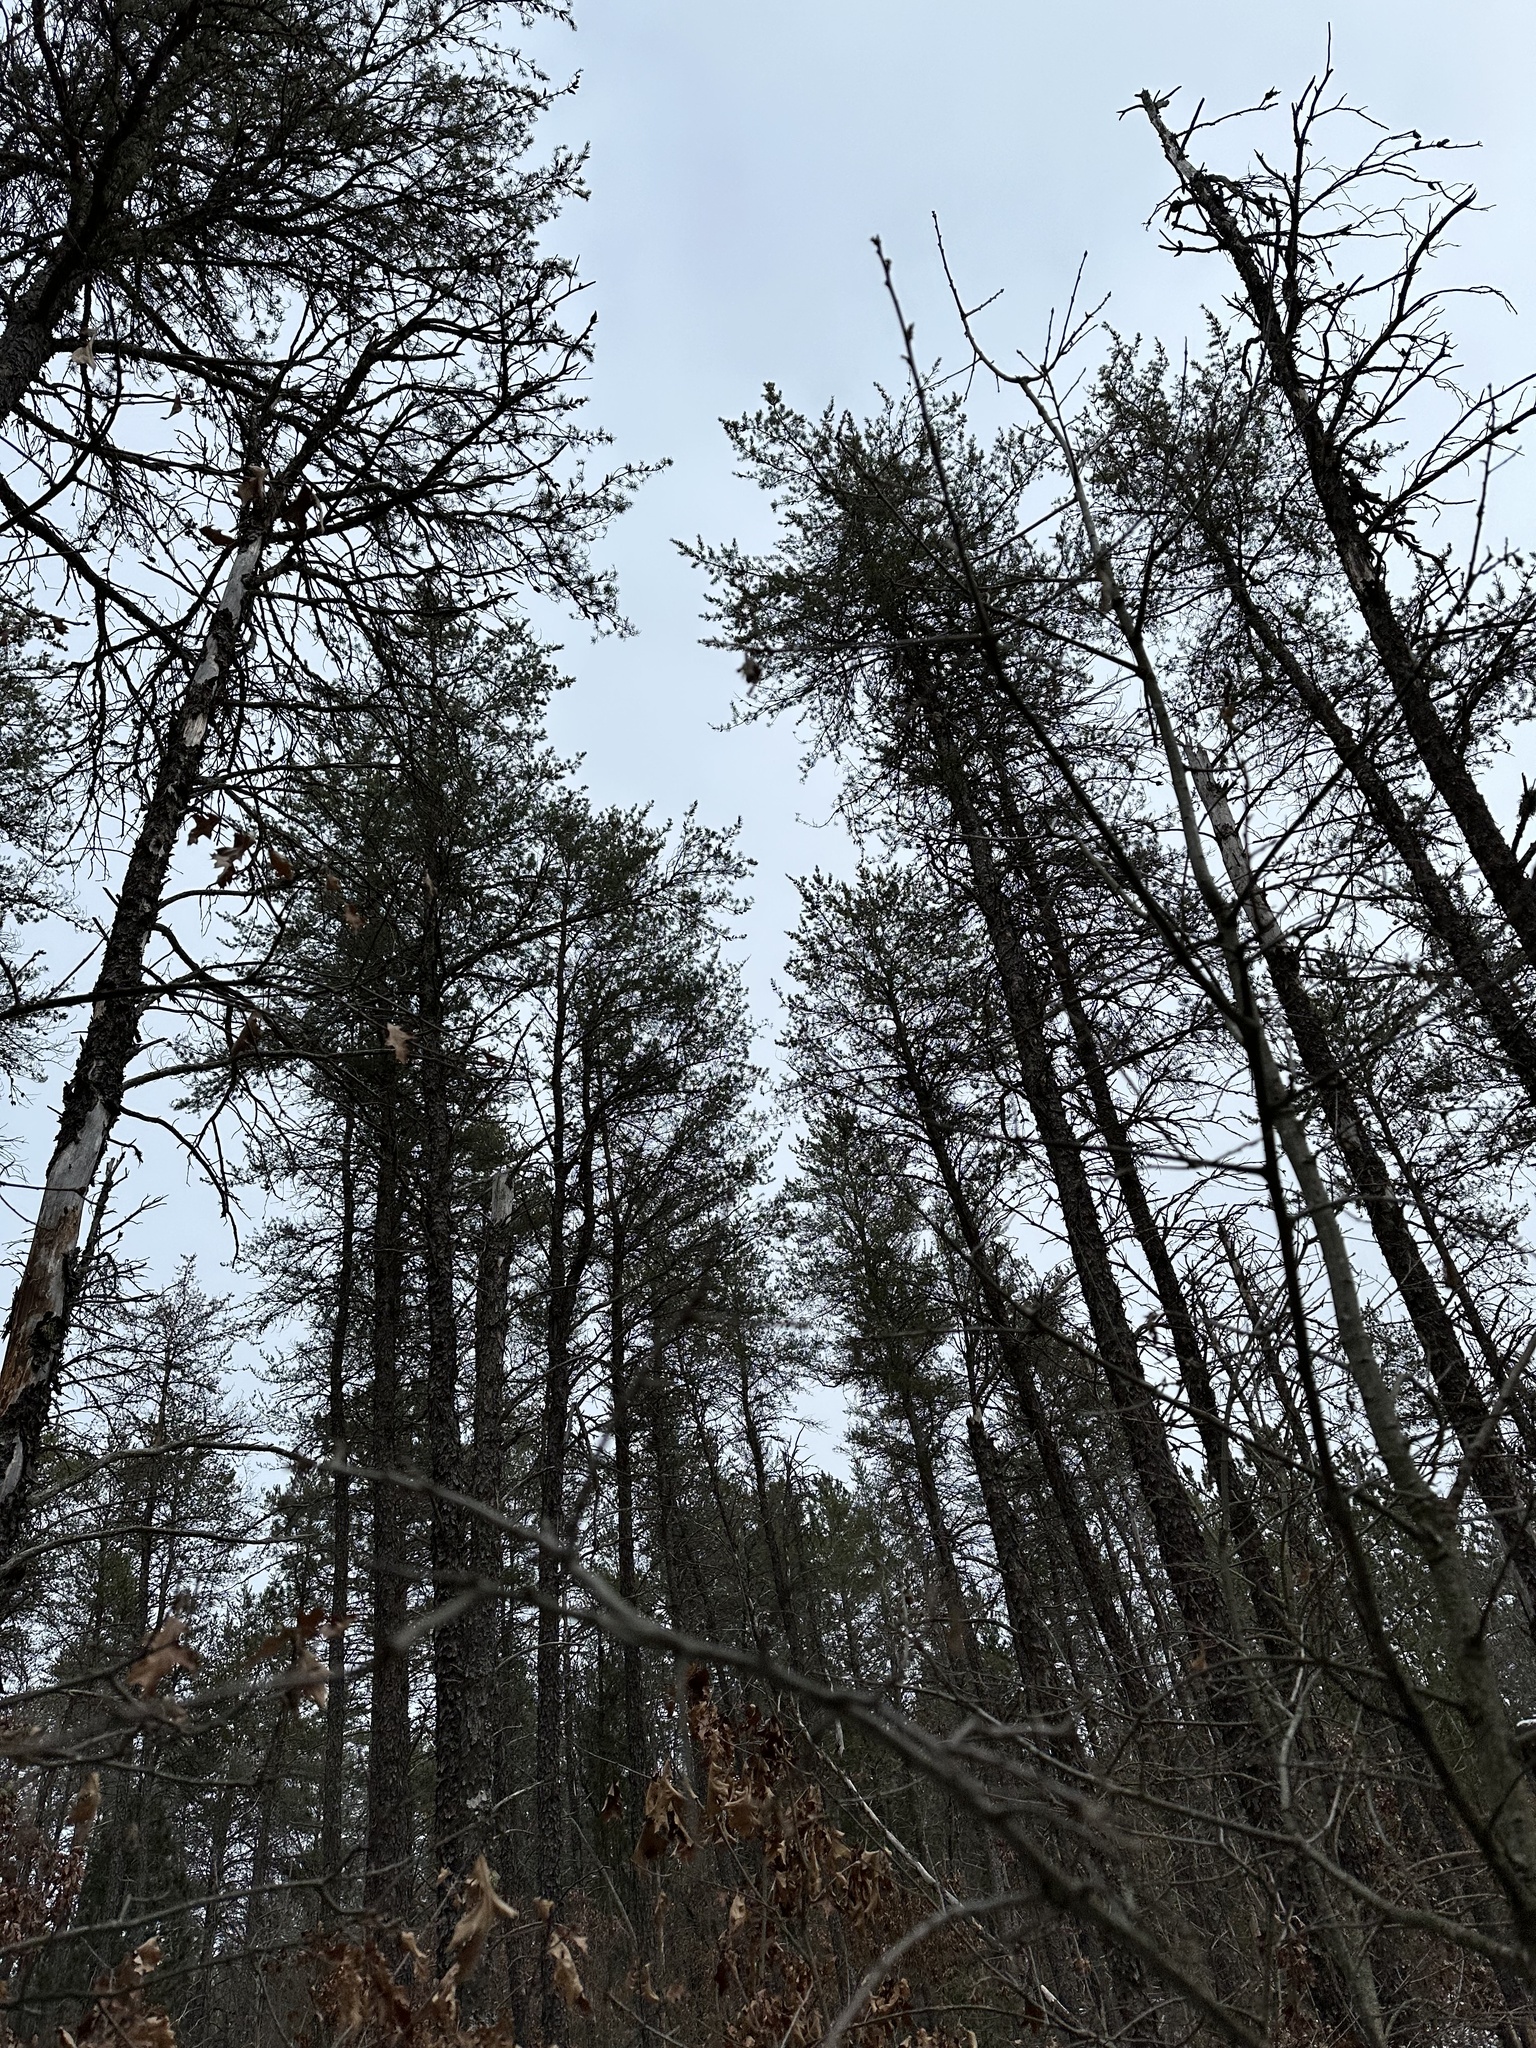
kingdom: Plantae
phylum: Tracheophyta
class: Pinopsida
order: Pinales
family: Pinaceae
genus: Pinus
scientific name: Pinus banksiana
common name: Jack pine
